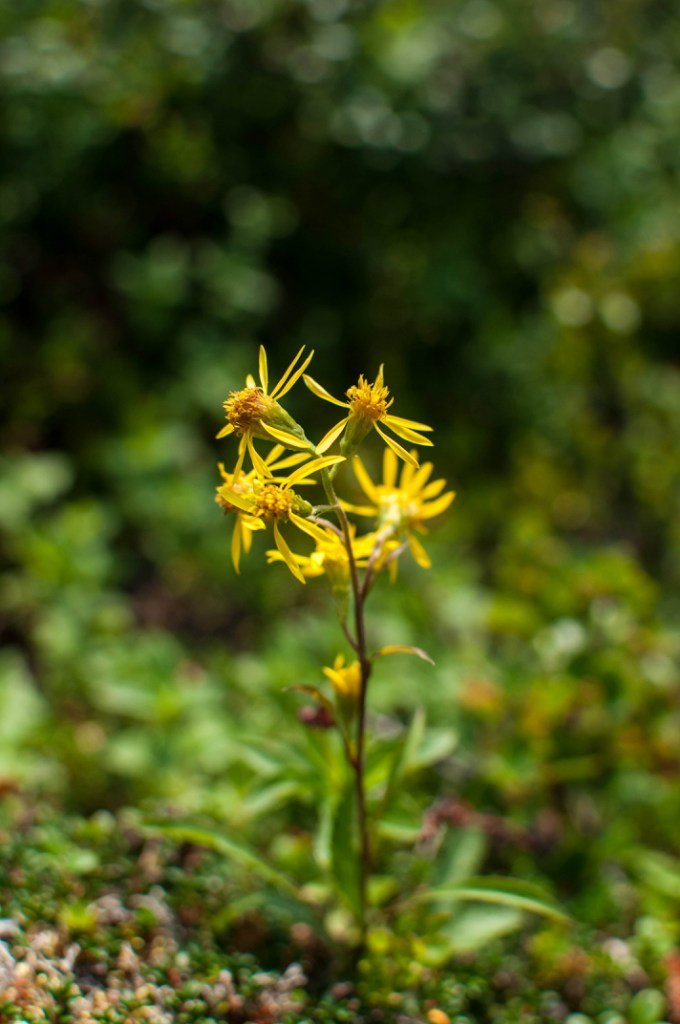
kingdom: Plantae
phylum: Tracheophyta
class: Magnoliopsida
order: Asterales
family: Asteraceae
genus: Solidago
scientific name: Solidago virgaurea
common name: Goldenrod
